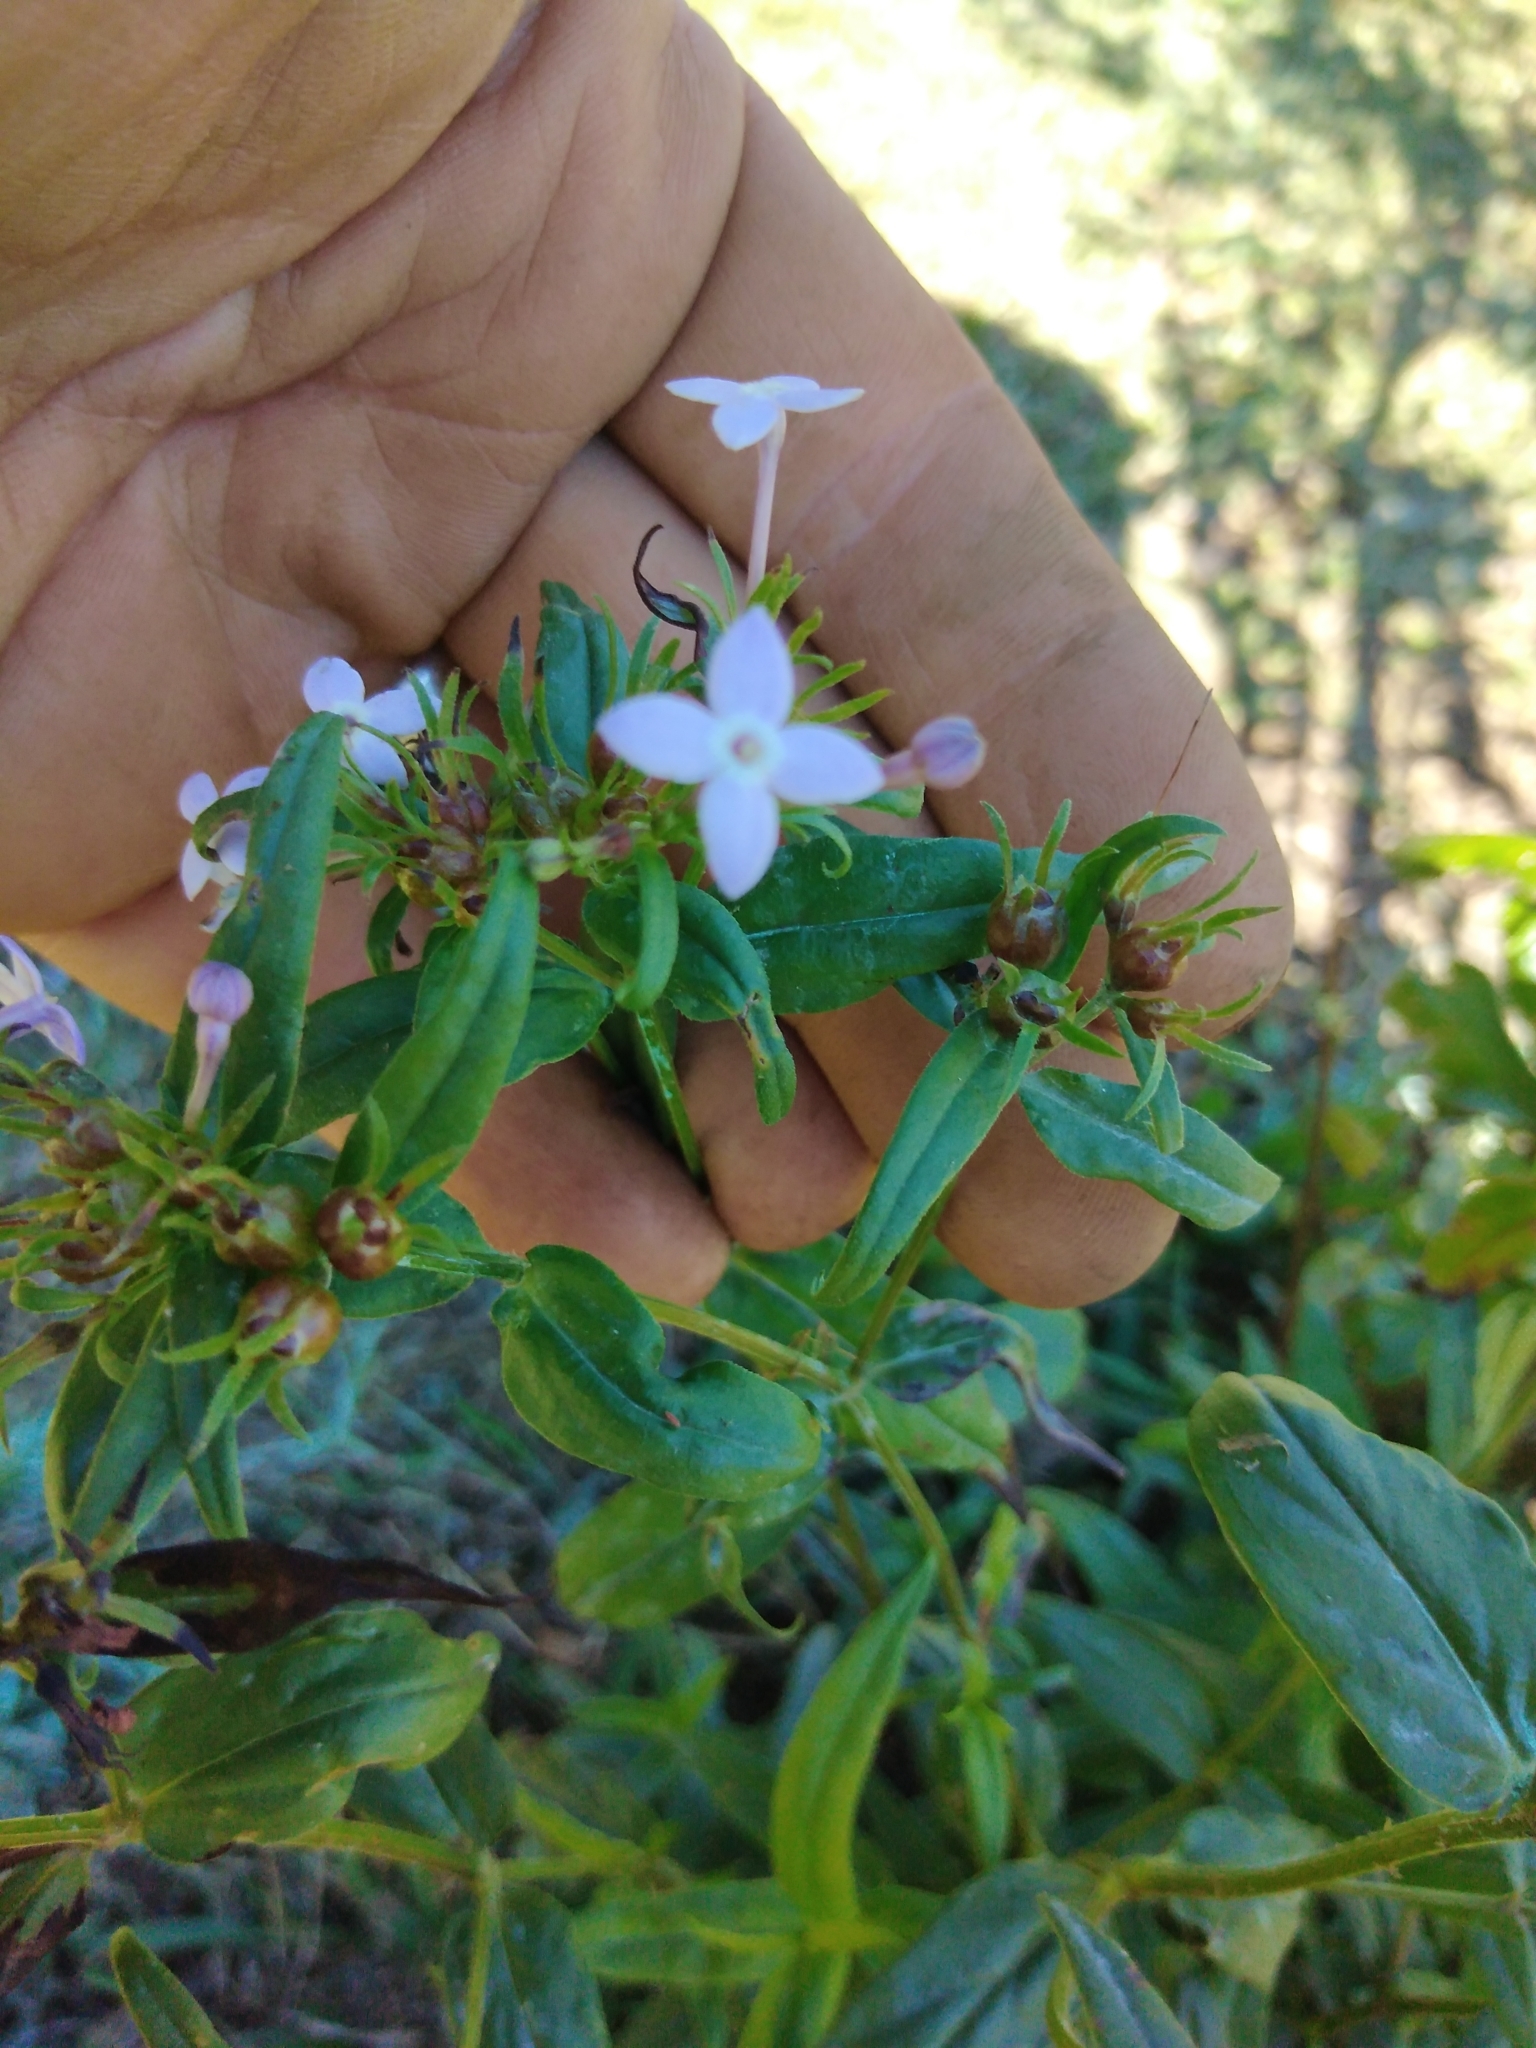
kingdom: Plantae
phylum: Tracheophyta
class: Magnoliopsida
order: Gentianales
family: Rubiaceae
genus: Conostomium
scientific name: Conostomium natalense
